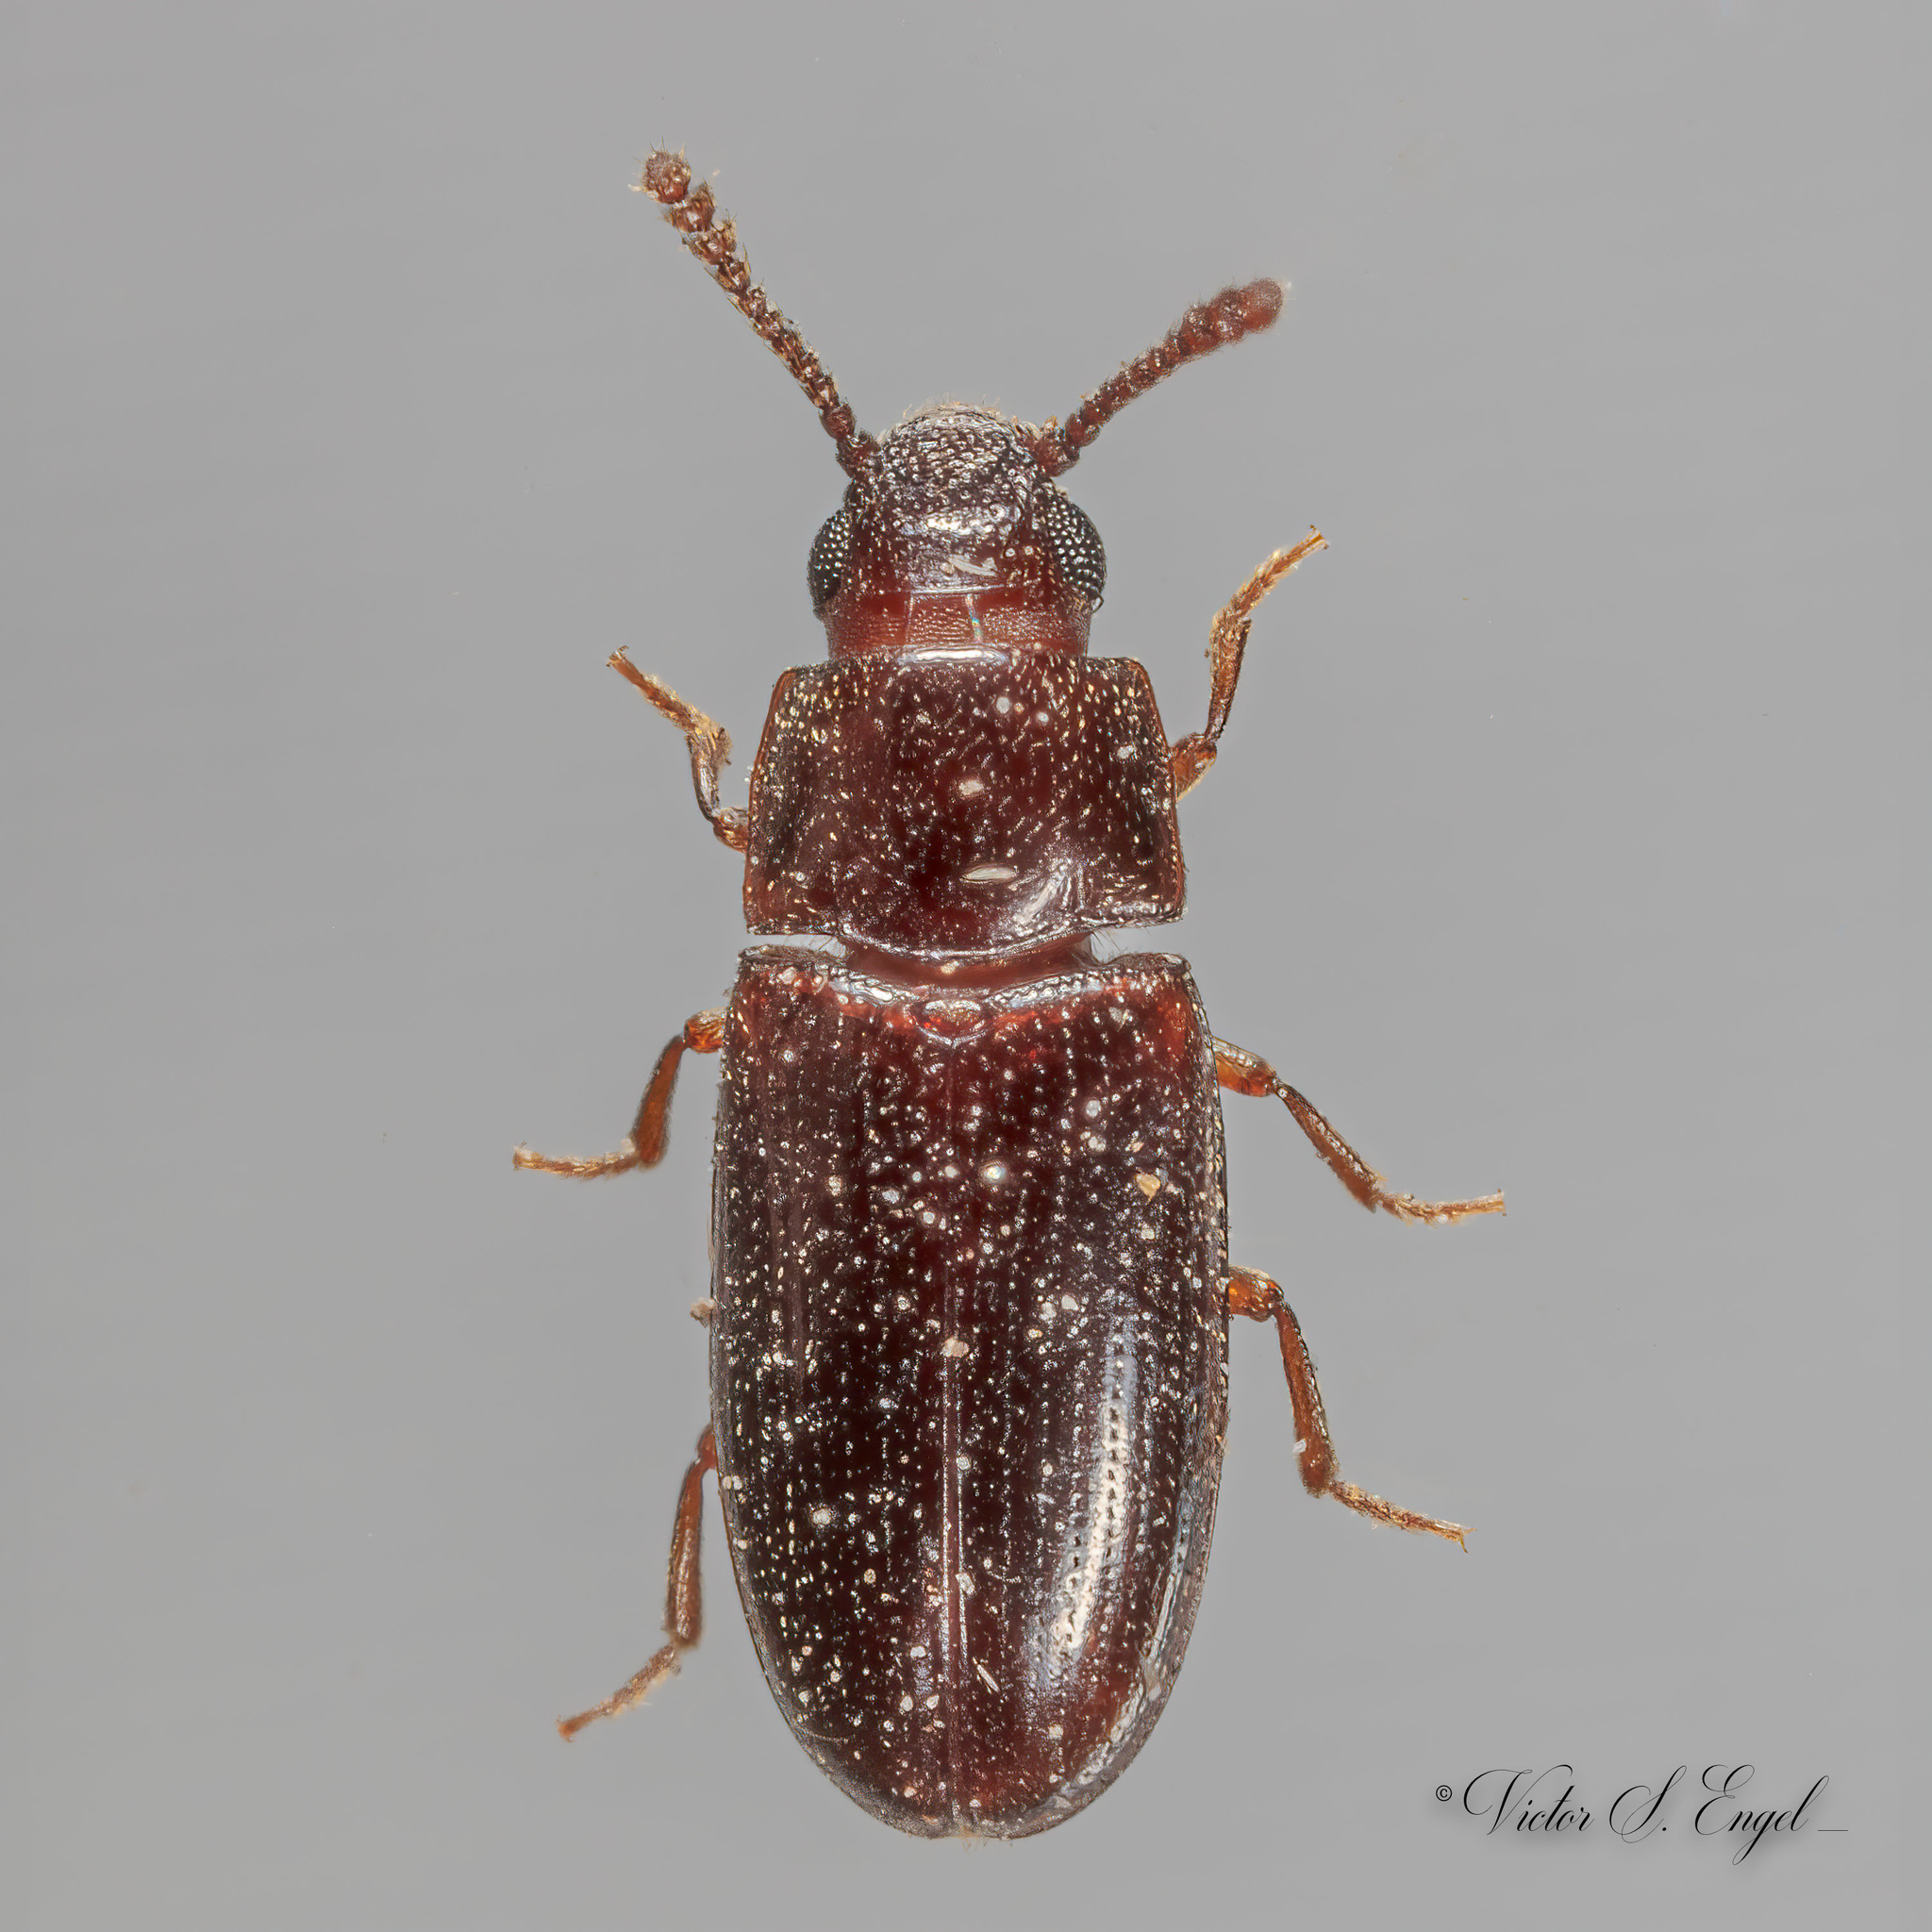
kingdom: Animalia
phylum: Arthropoda
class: Insecta
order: Coleoptera
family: Erotylidae
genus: Pharaxonotha
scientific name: Pharaxonotha kirschii
